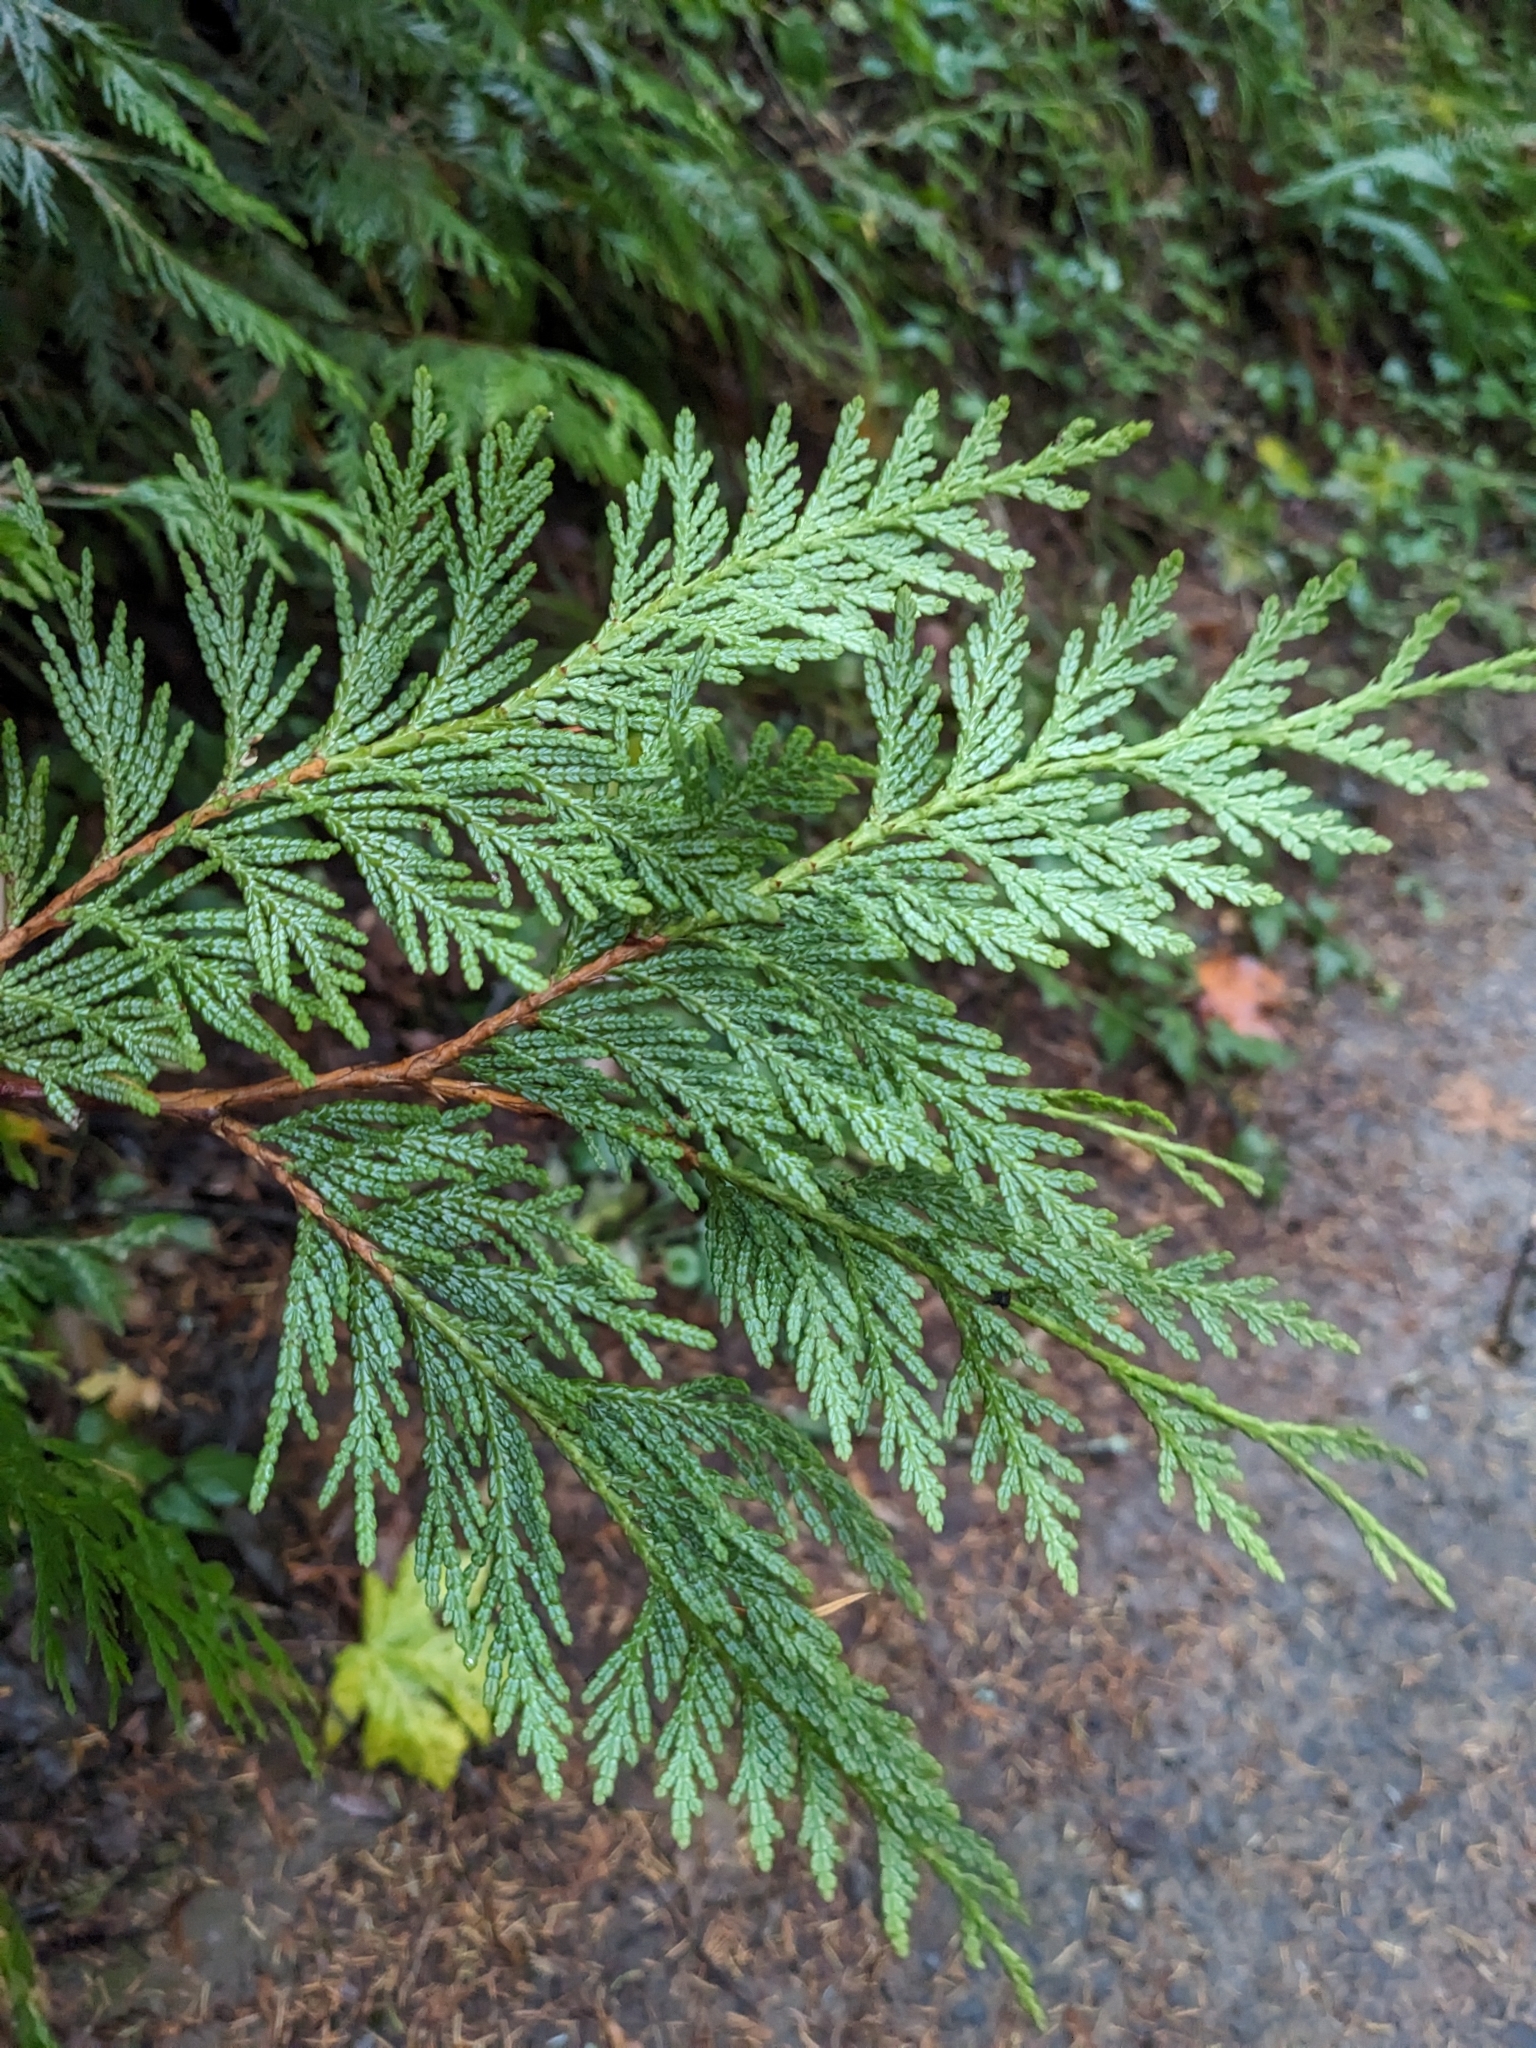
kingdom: Plantae
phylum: Tracheophyta
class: Pinopsida
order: Pinales
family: Cupressaceae
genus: Thuja
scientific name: Thuja plicata
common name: Western red-cedar
